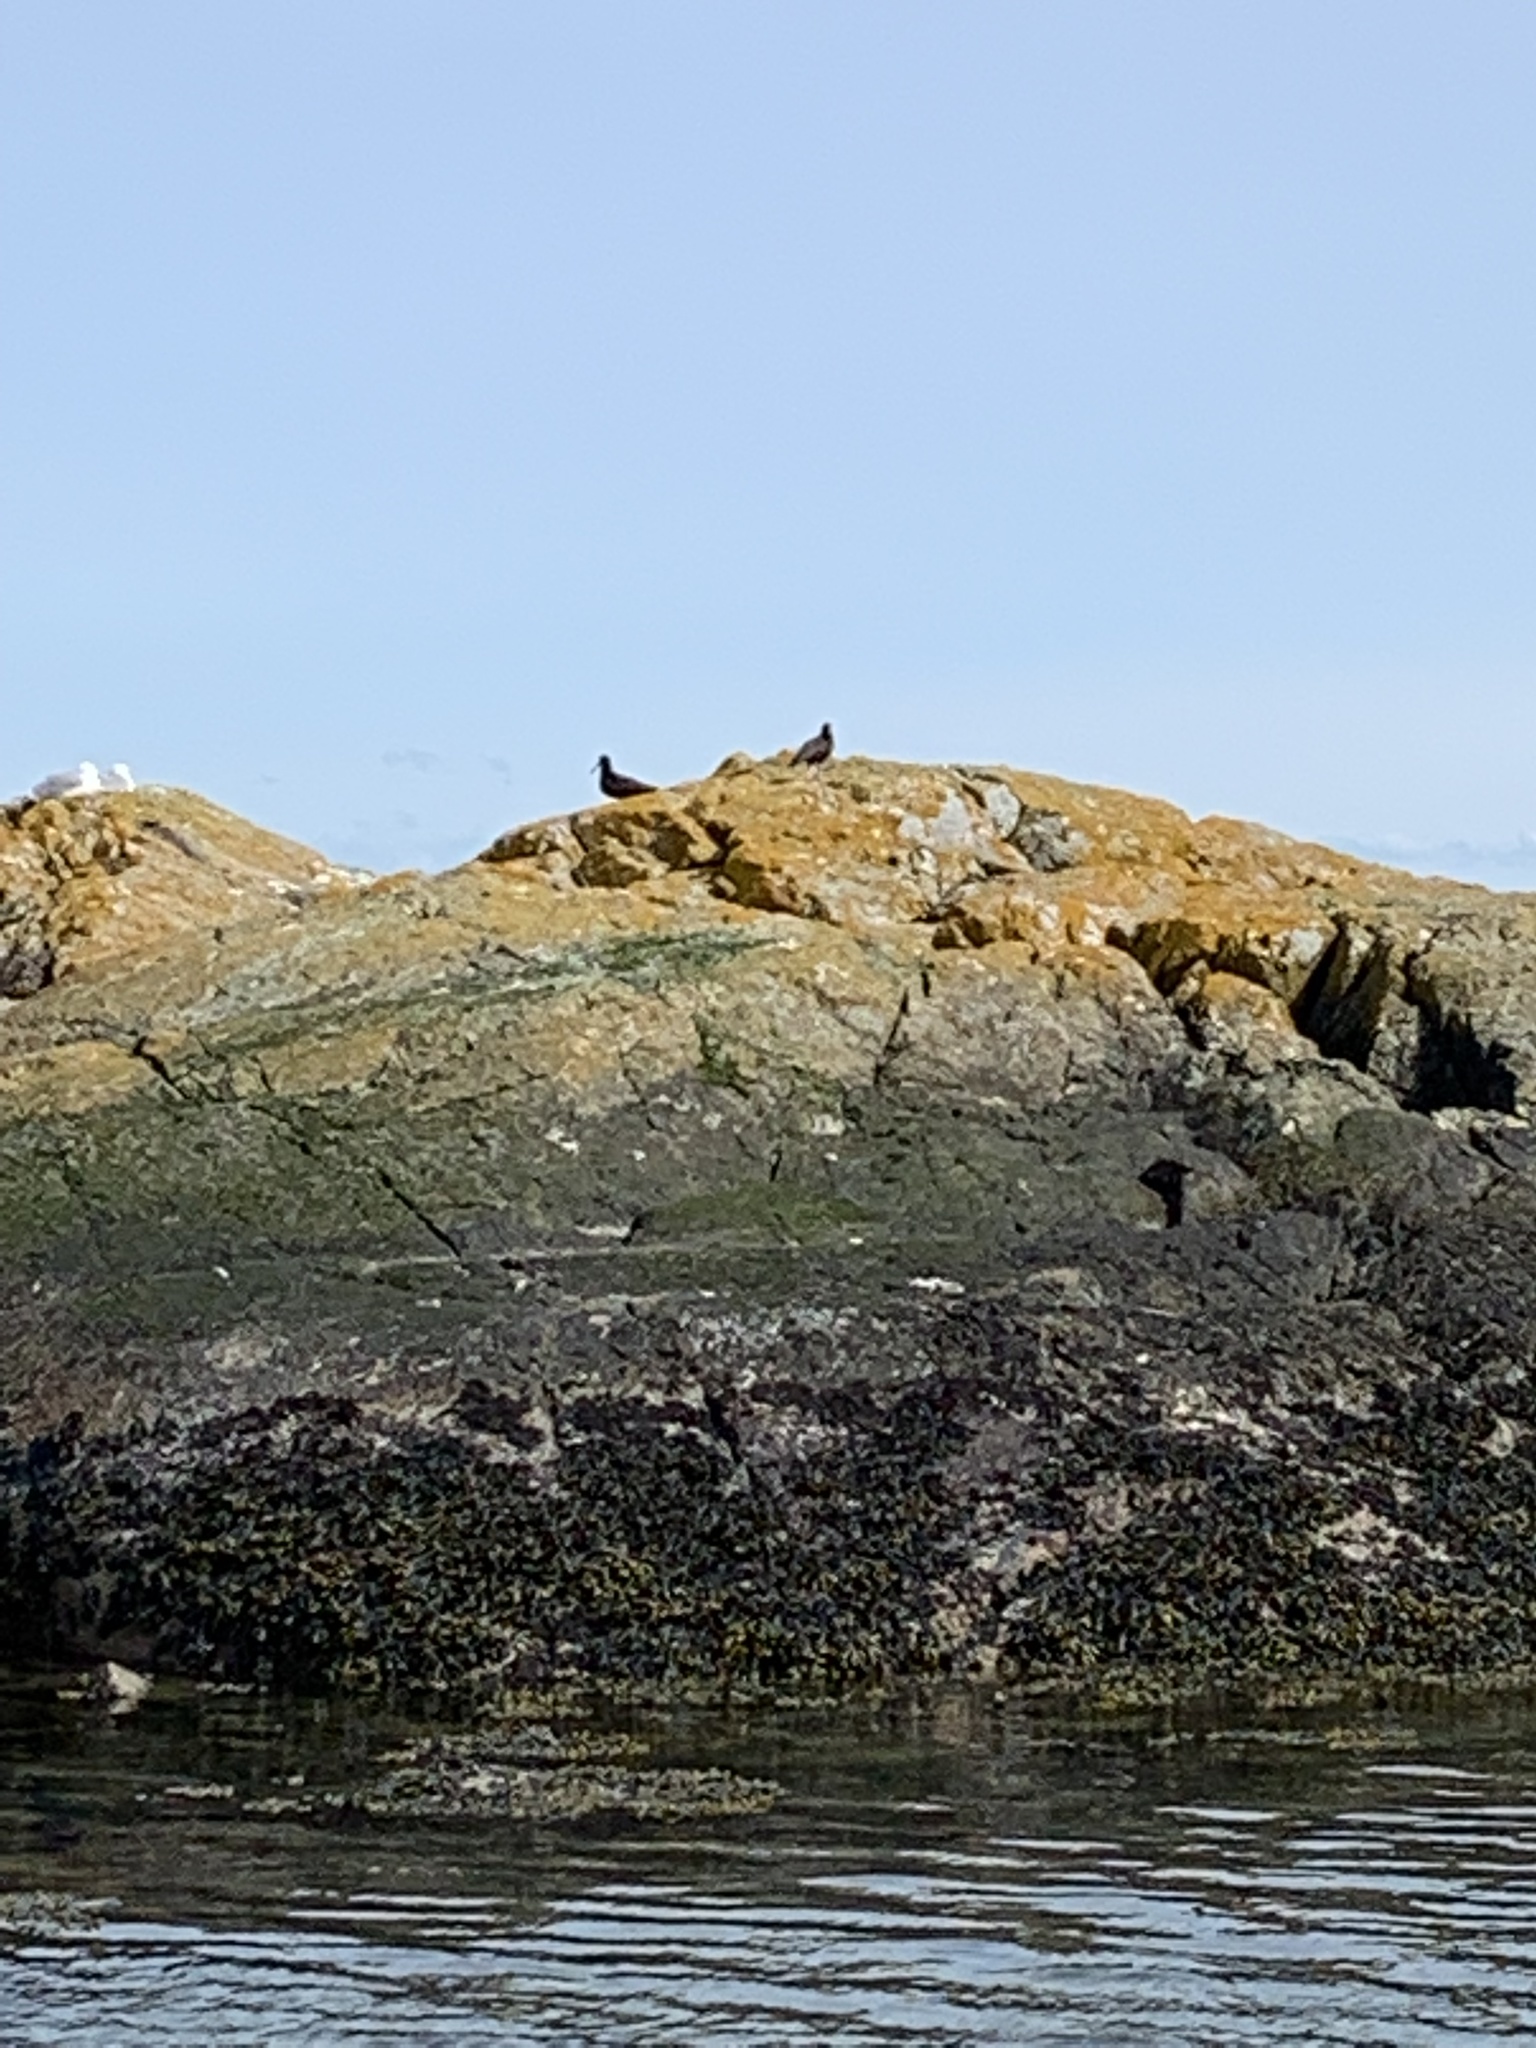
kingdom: Animalia
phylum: Chordata
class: Aves
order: Charadriiformes
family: Haematopodidae
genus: Haematopus
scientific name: Haematopus bachmani
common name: Black oystercatcher
